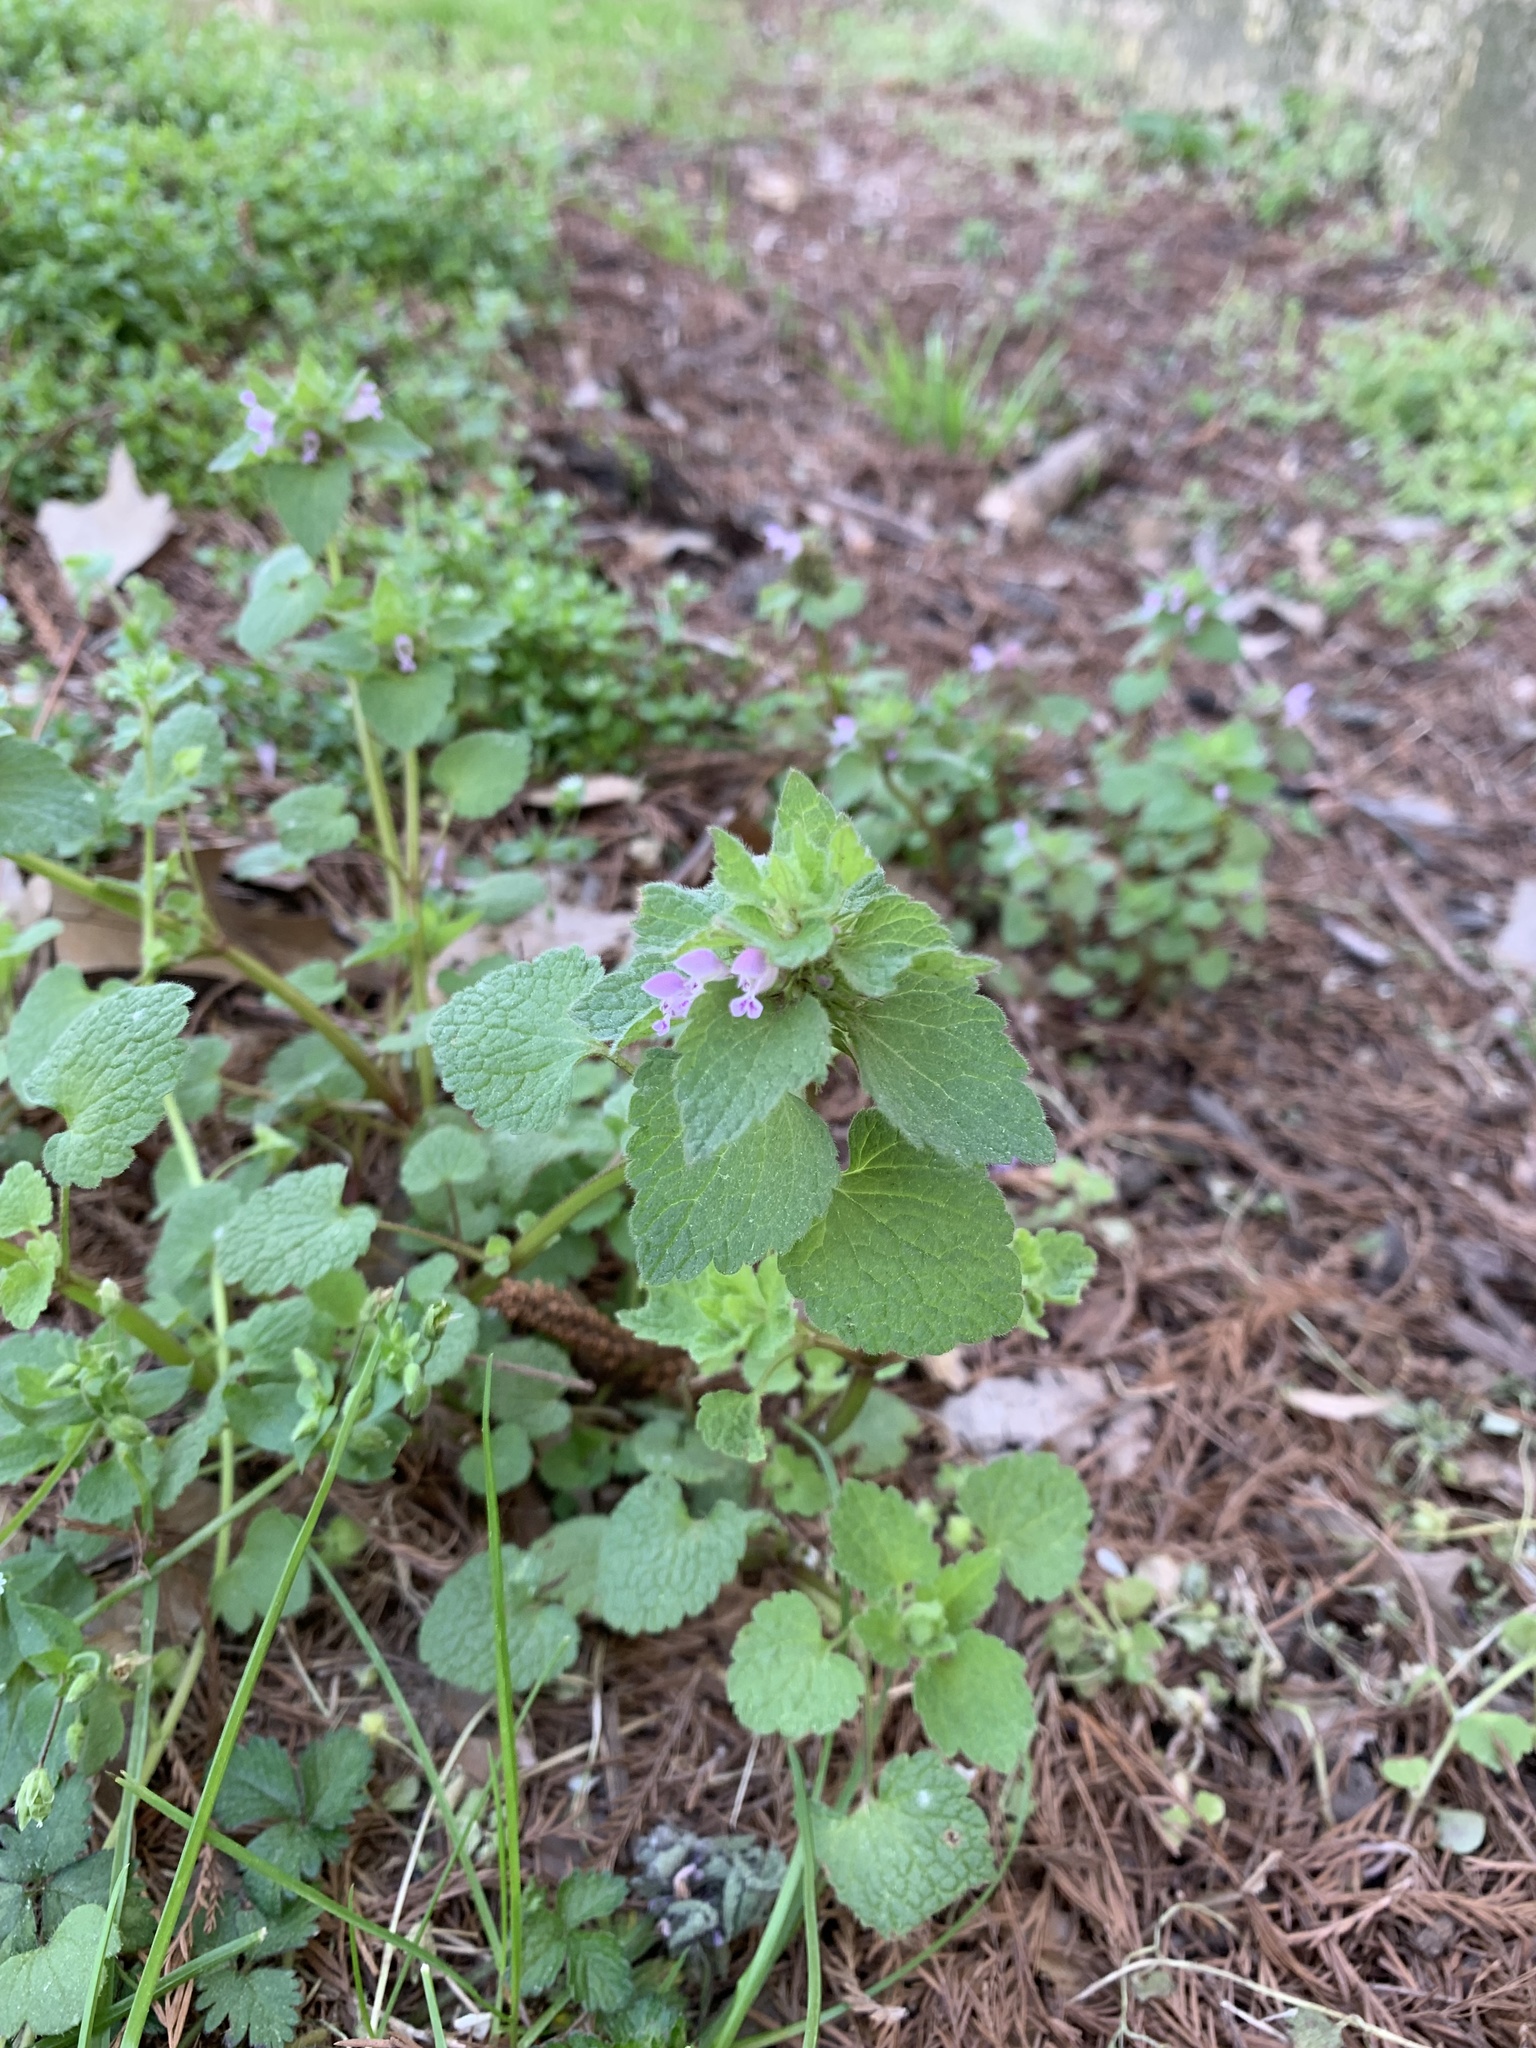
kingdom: Plantae
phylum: Tracheophyta
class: Magnoliopsida
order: Lamiales
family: Lamiaceae
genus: Lamium
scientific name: Lamium purpureum
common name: Red dead-nettle
